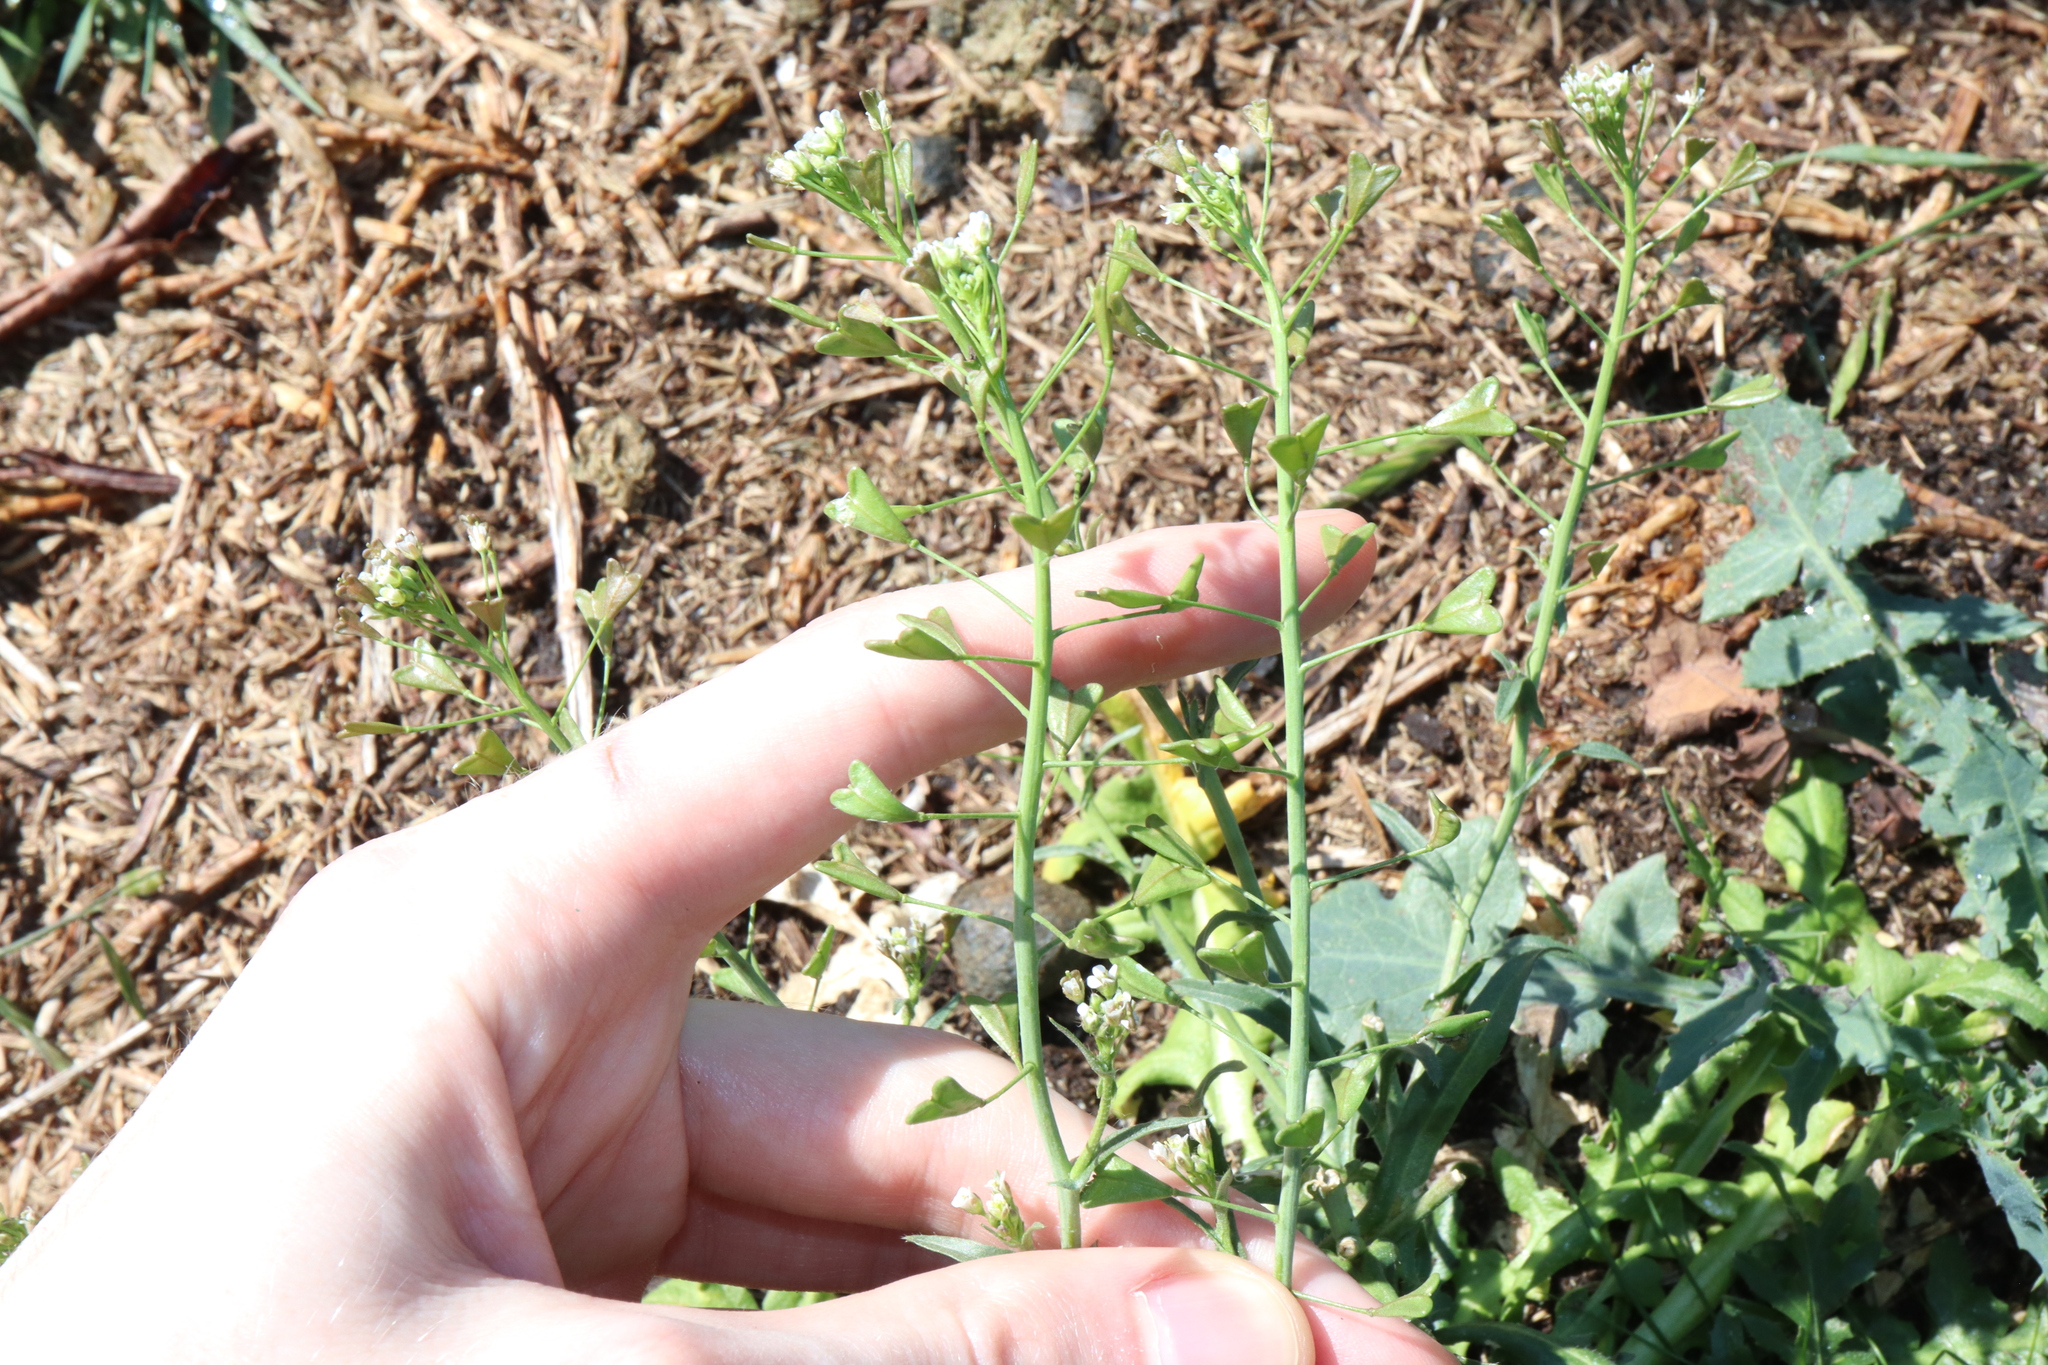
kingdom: Plantae
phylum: Tracheophyta
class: Magnoliopsida
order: Brassicales
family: Brassicaceae
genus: Capsella
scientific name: Capsella bursa-pastoris
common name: Shepherd's purse
